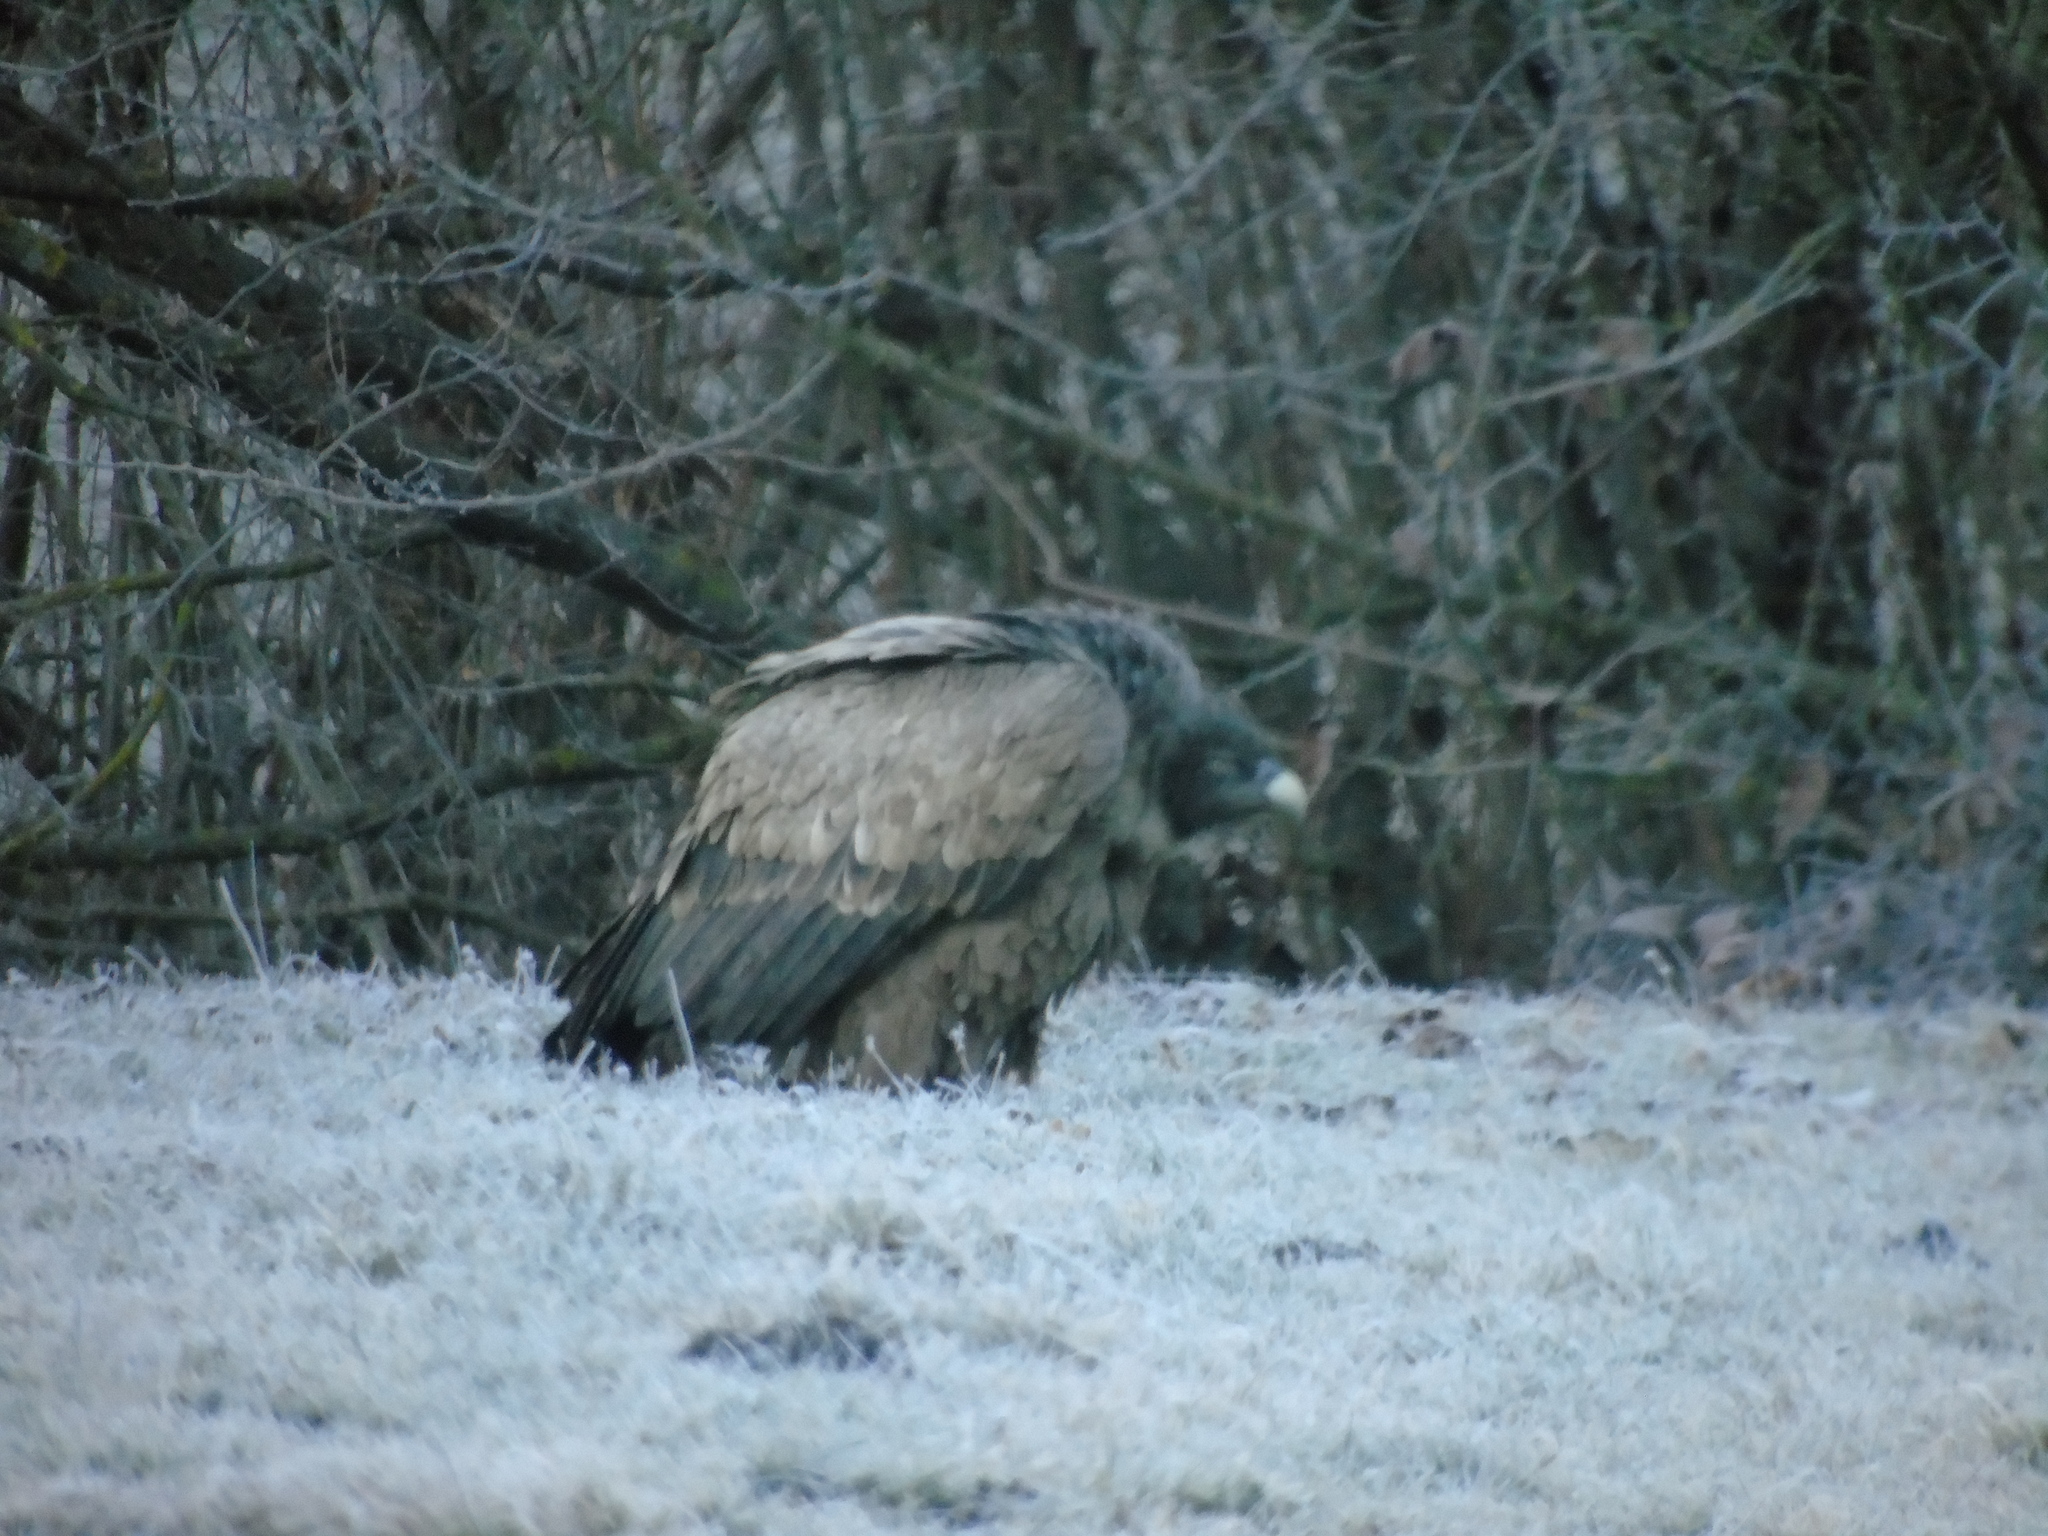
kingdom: Animalia
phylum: Chordata
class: Aves
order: Accipitriformes
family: Accipitridae
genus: Gyps
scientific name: Gyps fulvus
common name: Griffon vulture
